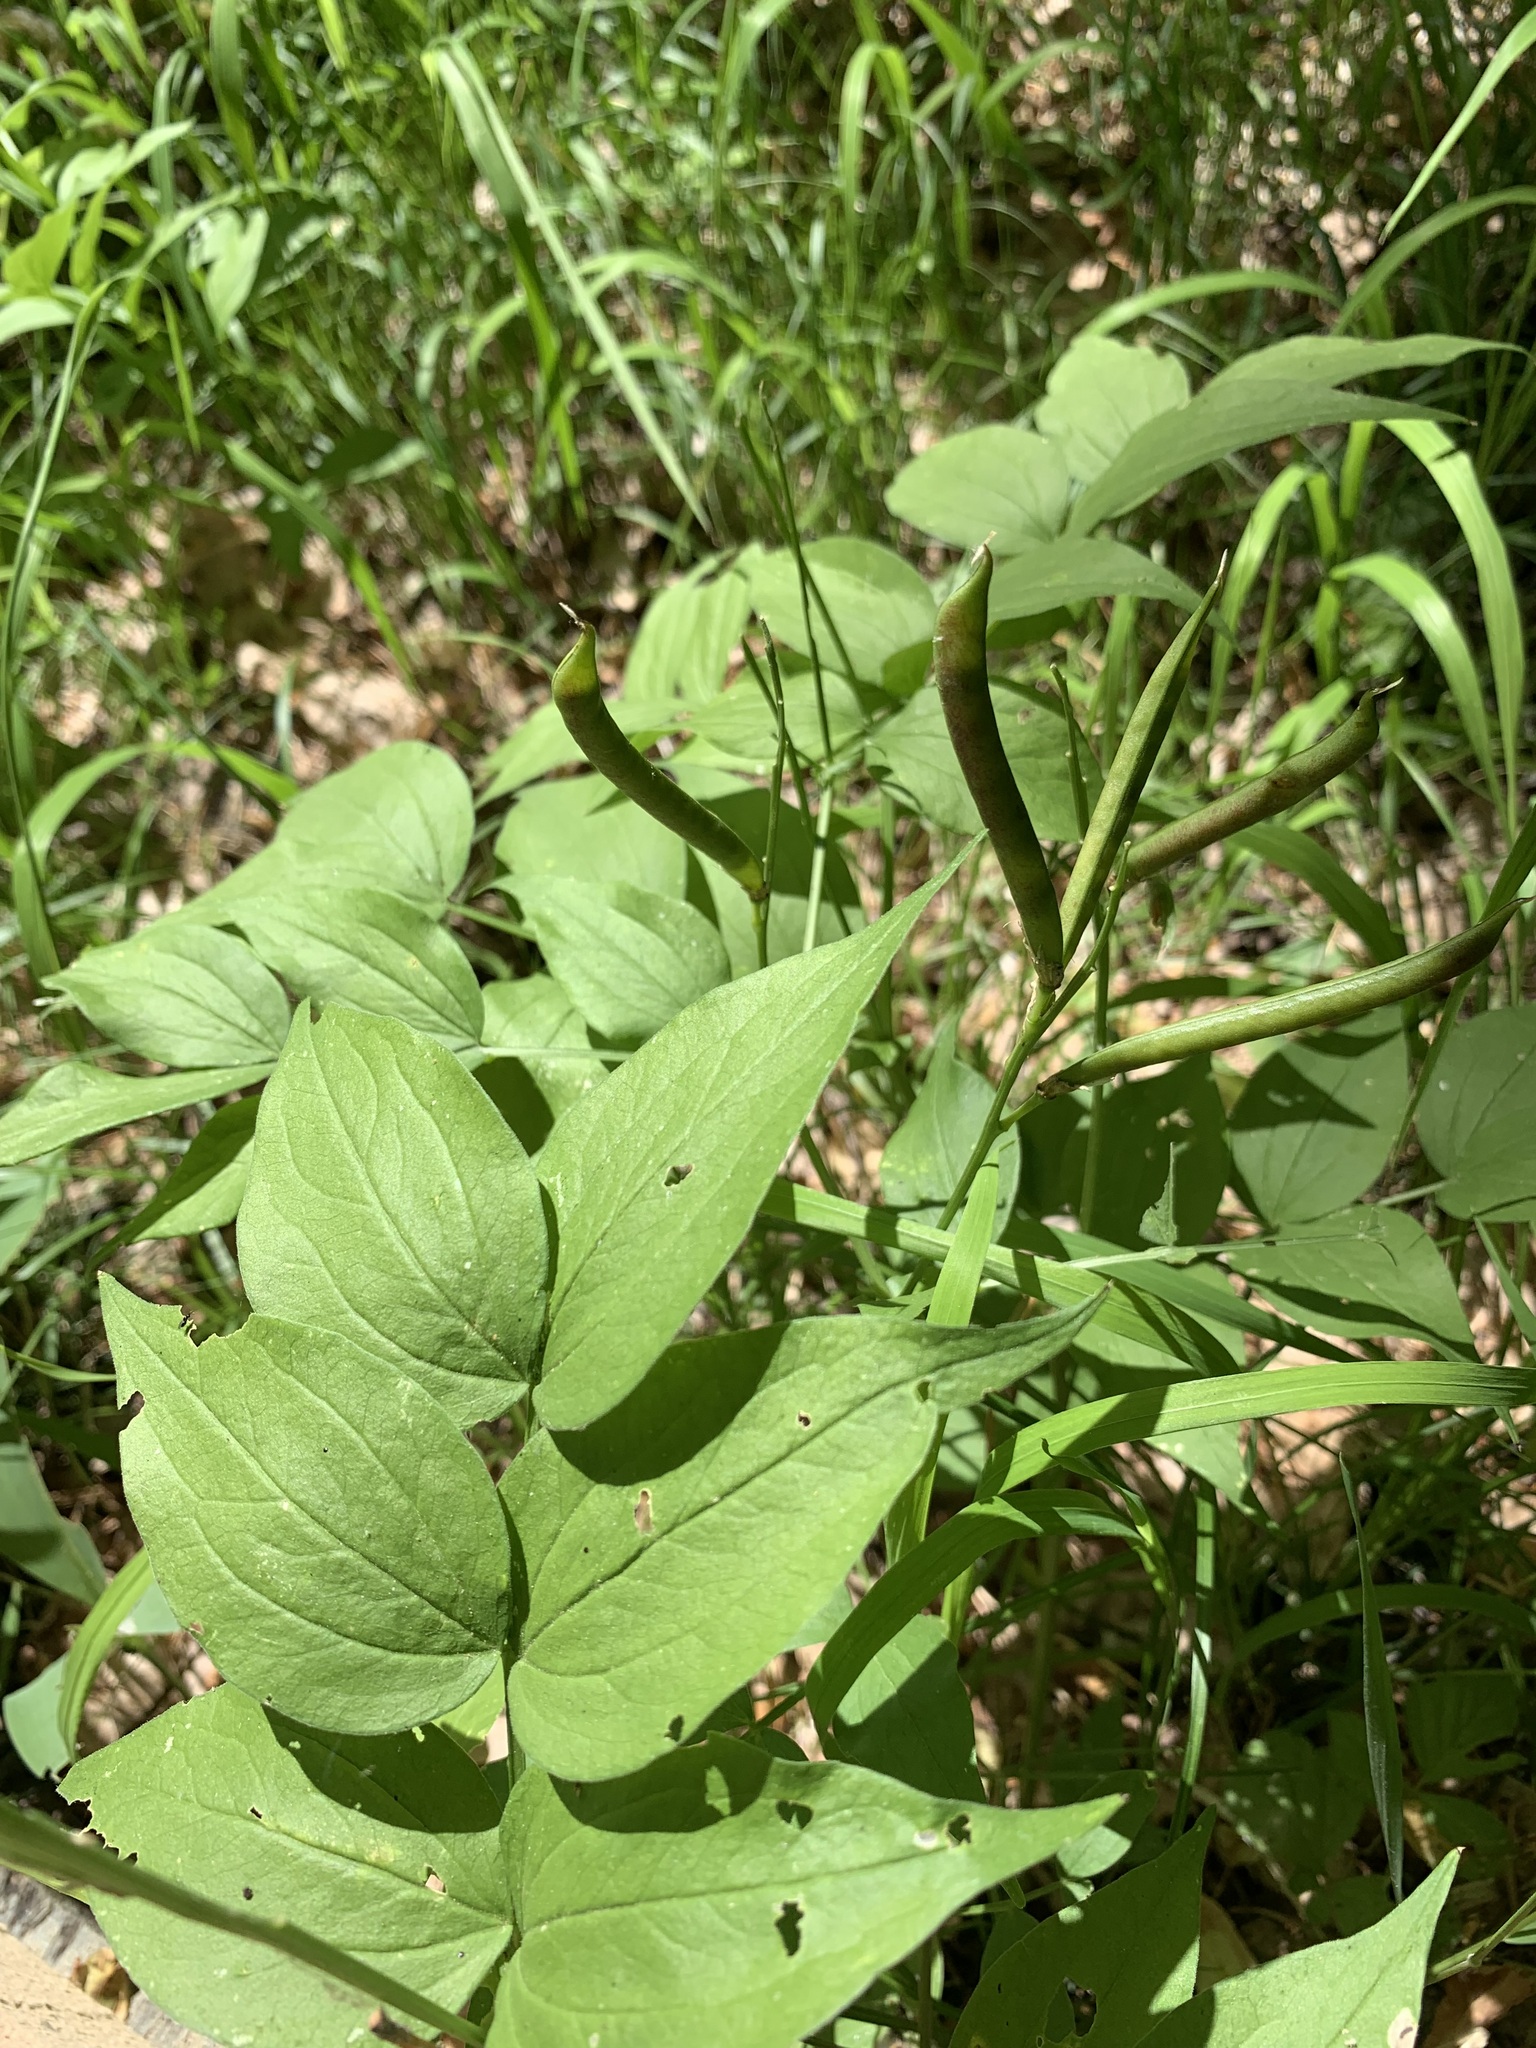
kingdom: Plantae
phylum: Tracheophyta
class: Magnoliopsida
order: Fabales
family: Fabaceae
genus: Lathyrus
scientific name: Lathyrus vernus
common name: Spring pea
